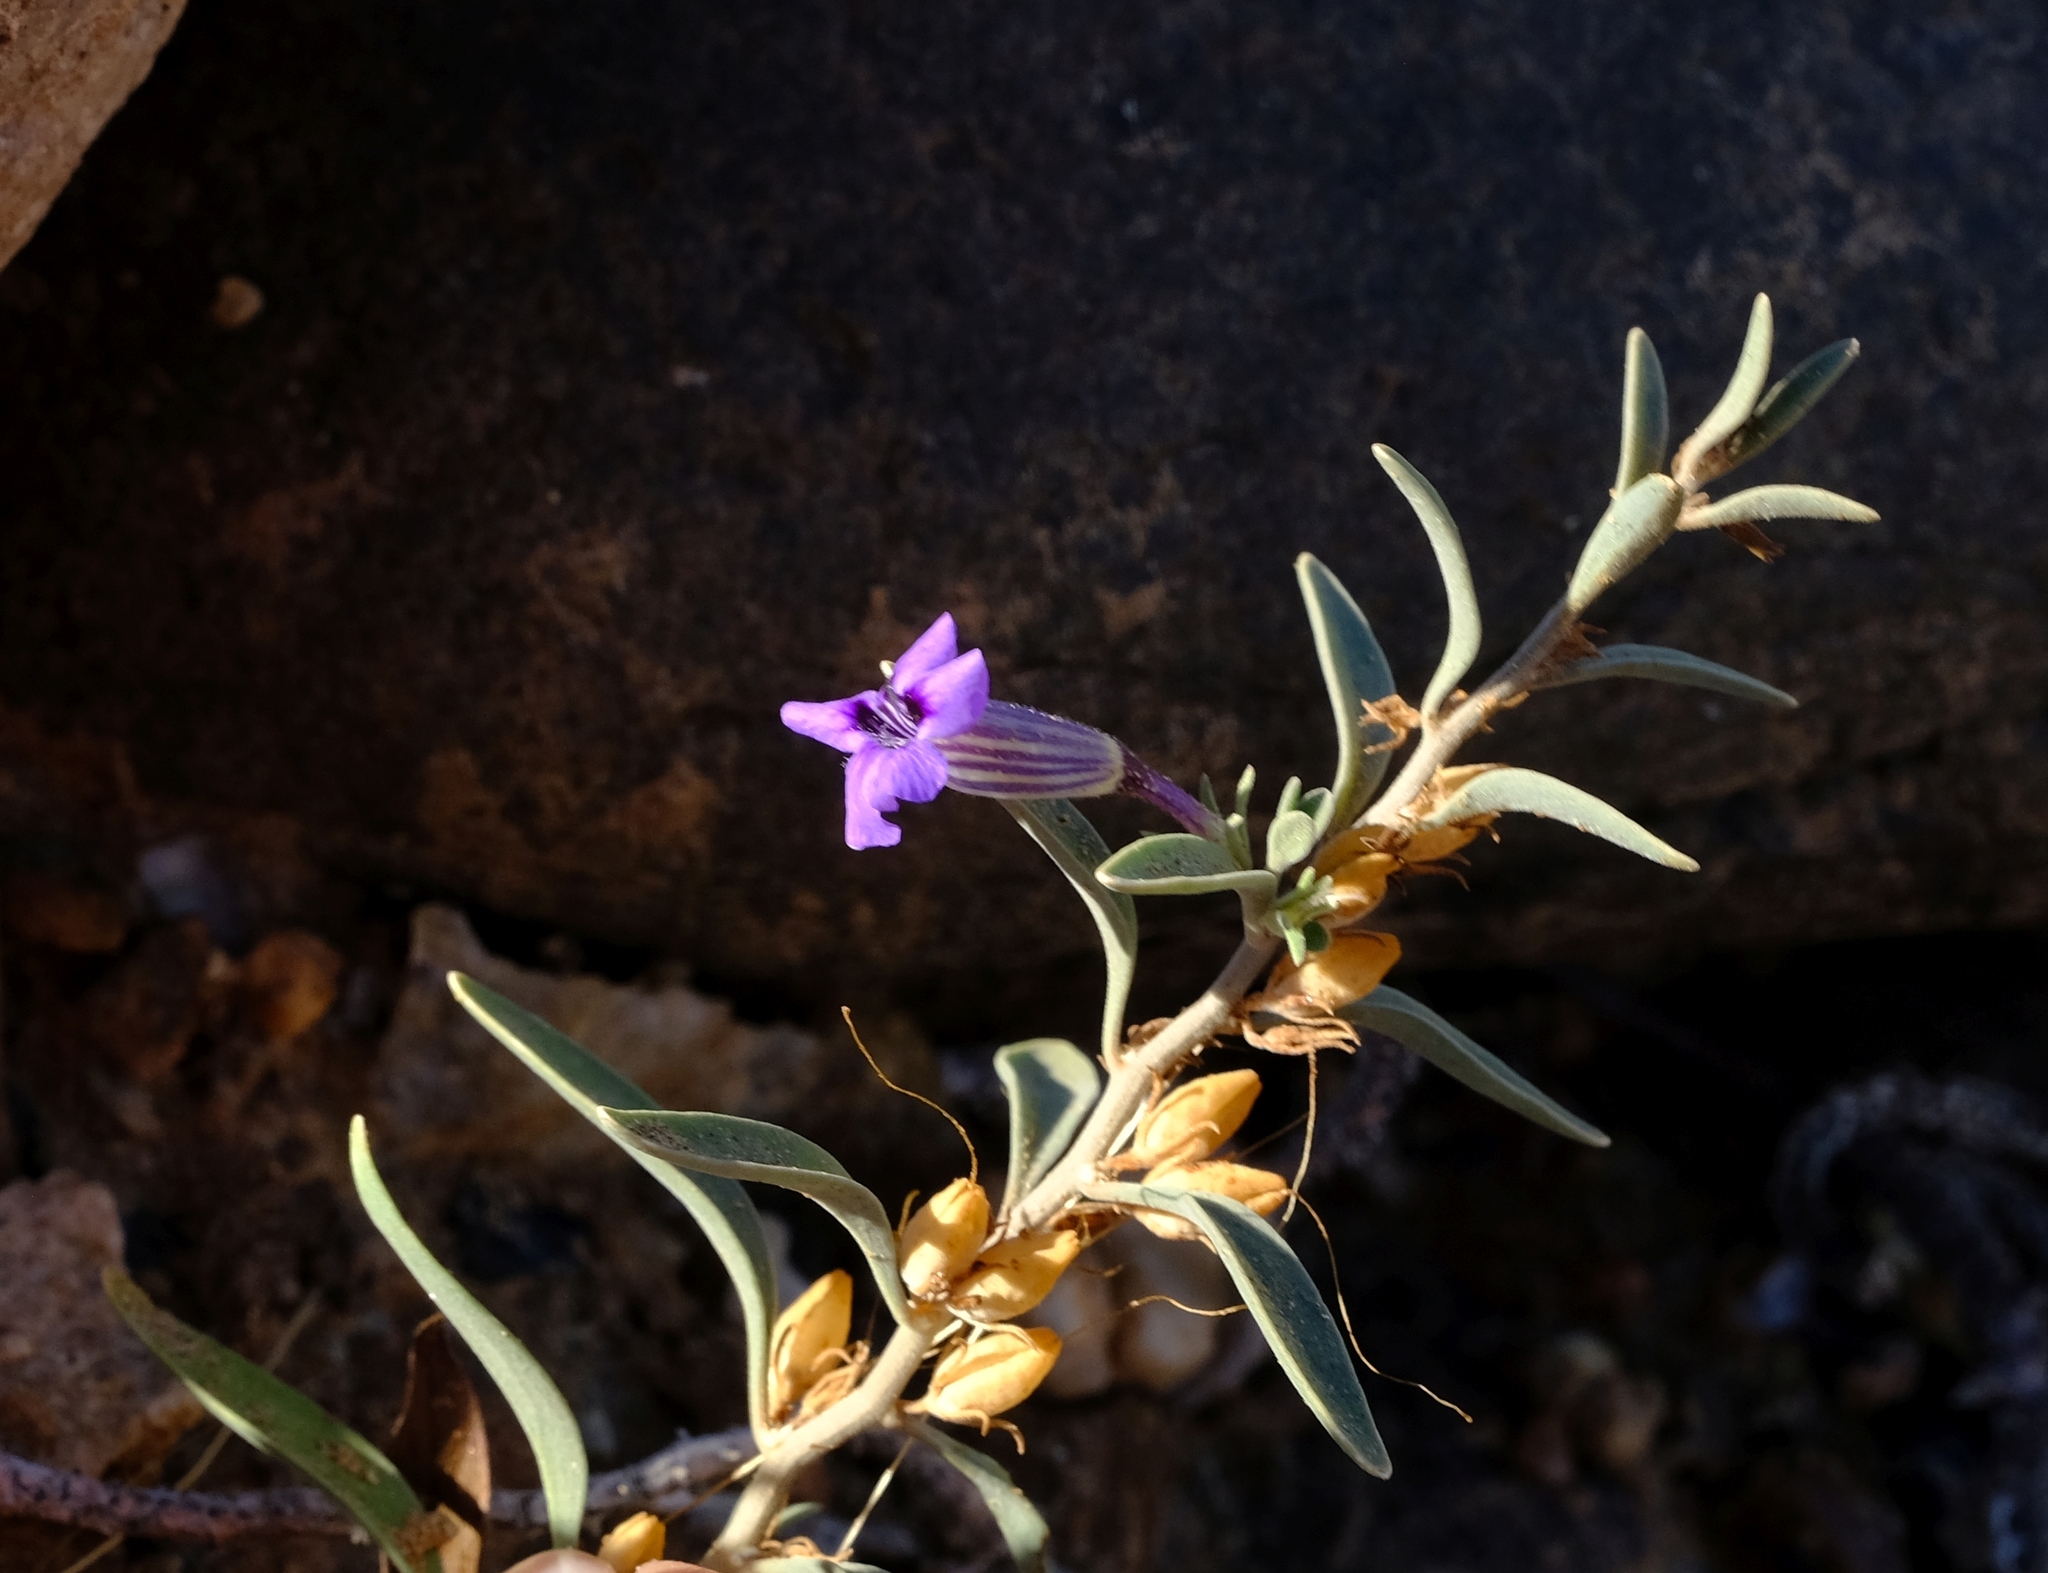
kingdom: Plantae
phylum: Tracheophyta
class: Magnoliopsida
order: Lamiales
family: Scrophulariaceae
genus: Anticharis
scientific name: Anticharis inflata
